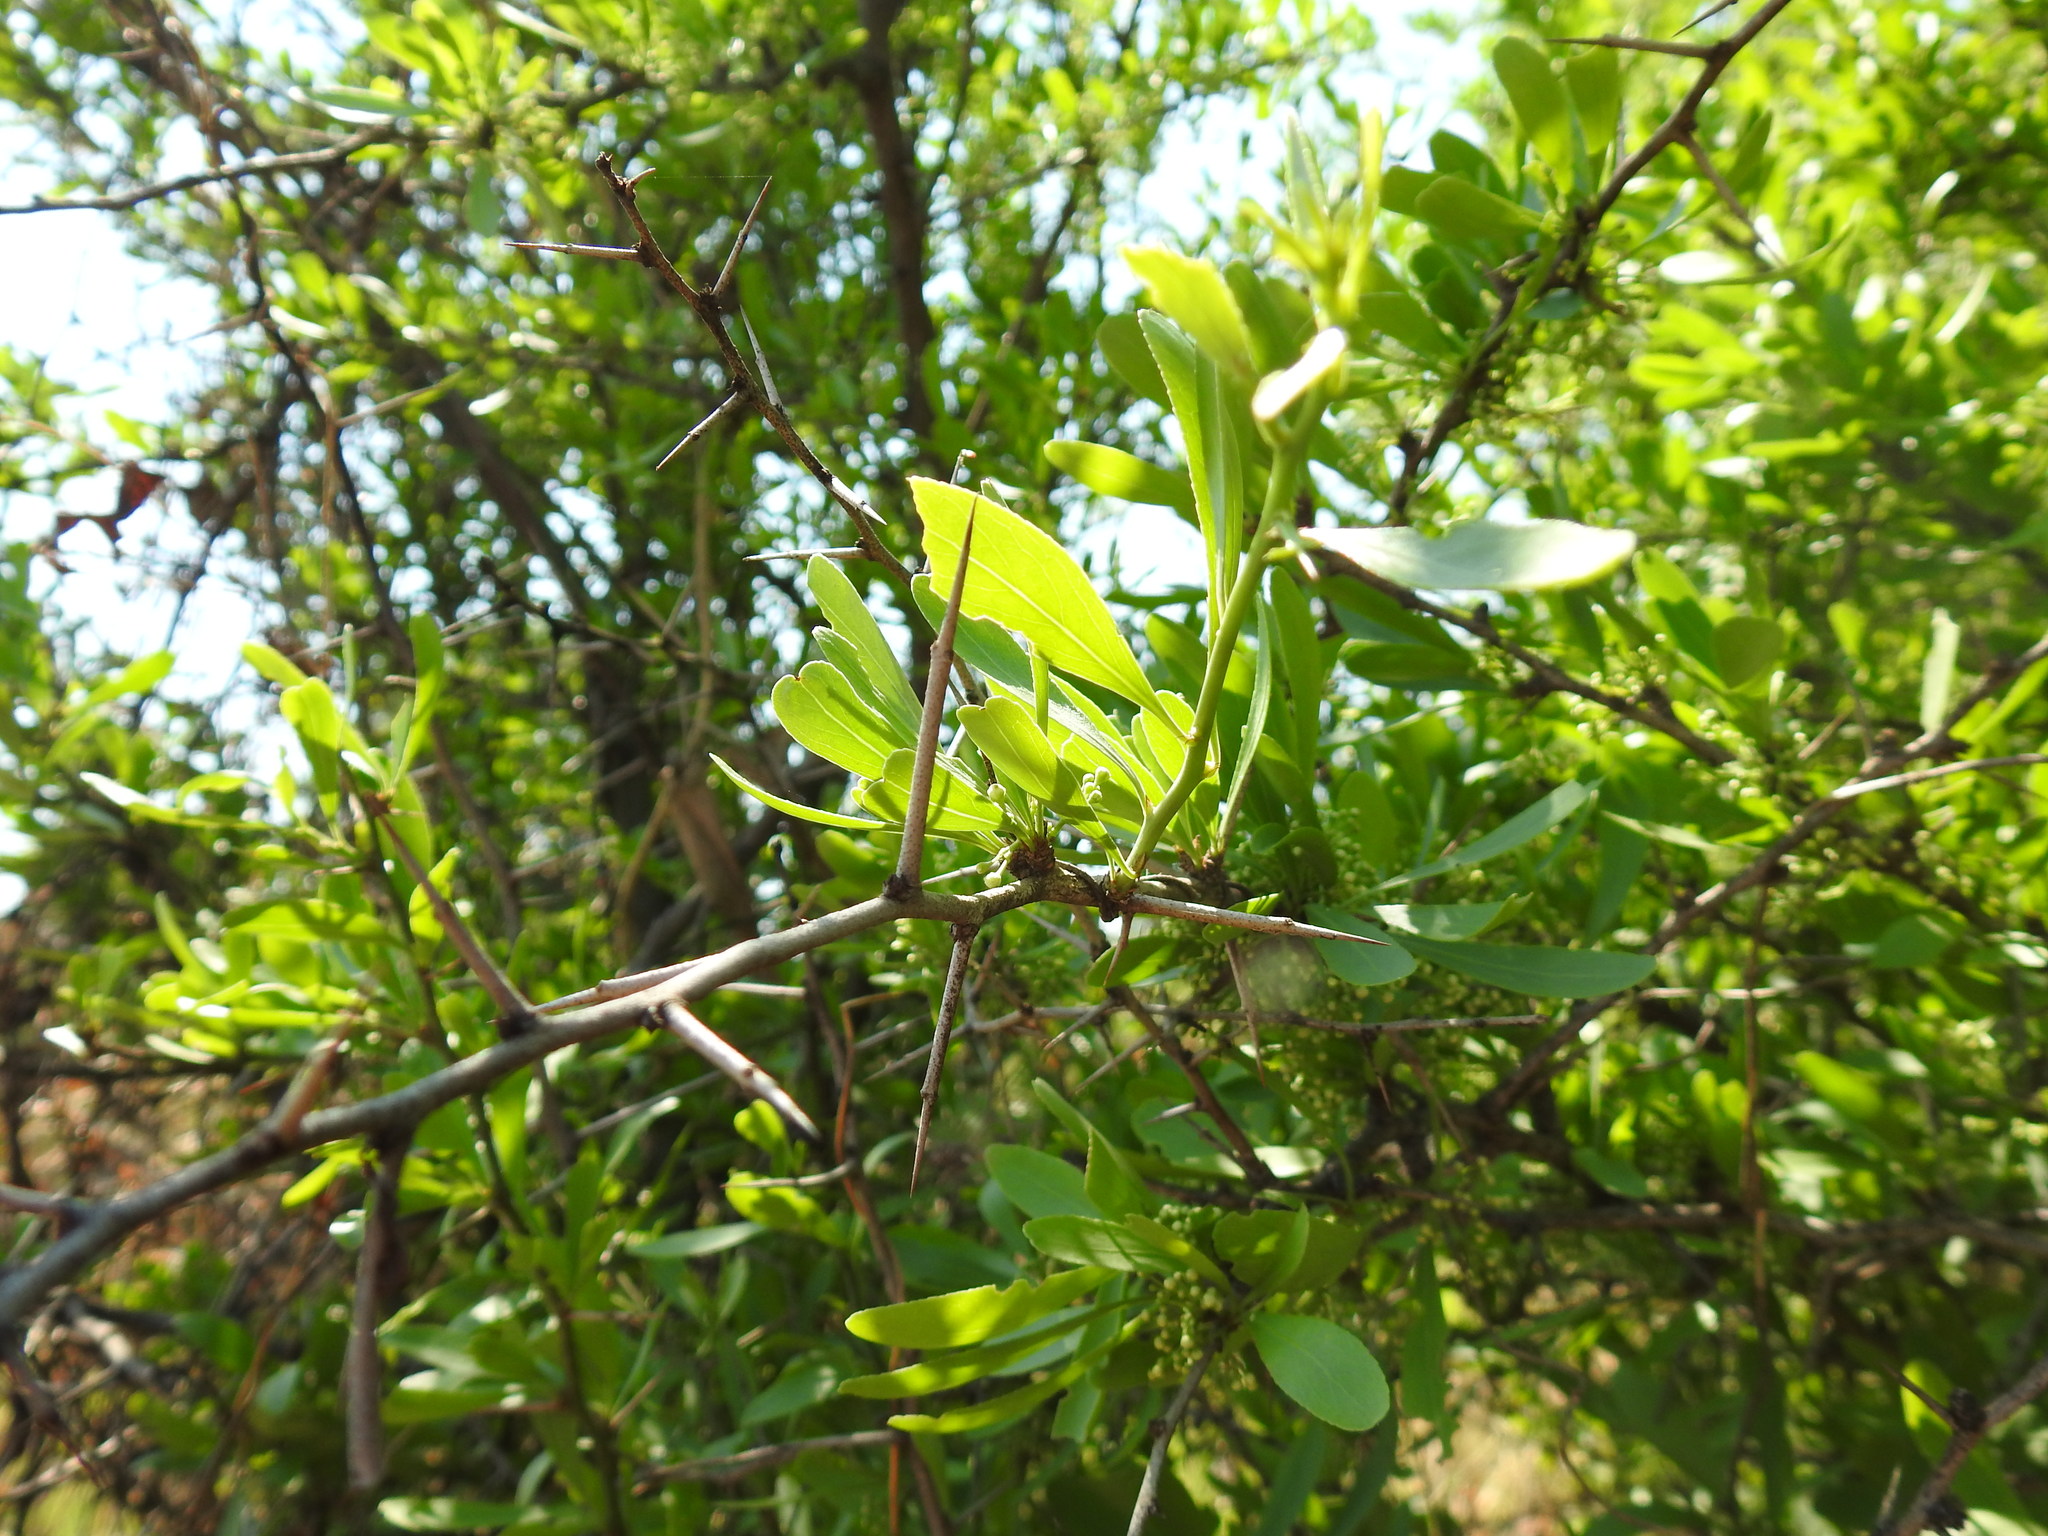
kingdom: Plantae
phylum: Tracheophyta
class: Magnoliopsida
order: Celastrales
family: Celastraceae
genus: Gymnosporia
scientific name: Gymnosporia buxifolia
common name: Common spike-thorn
